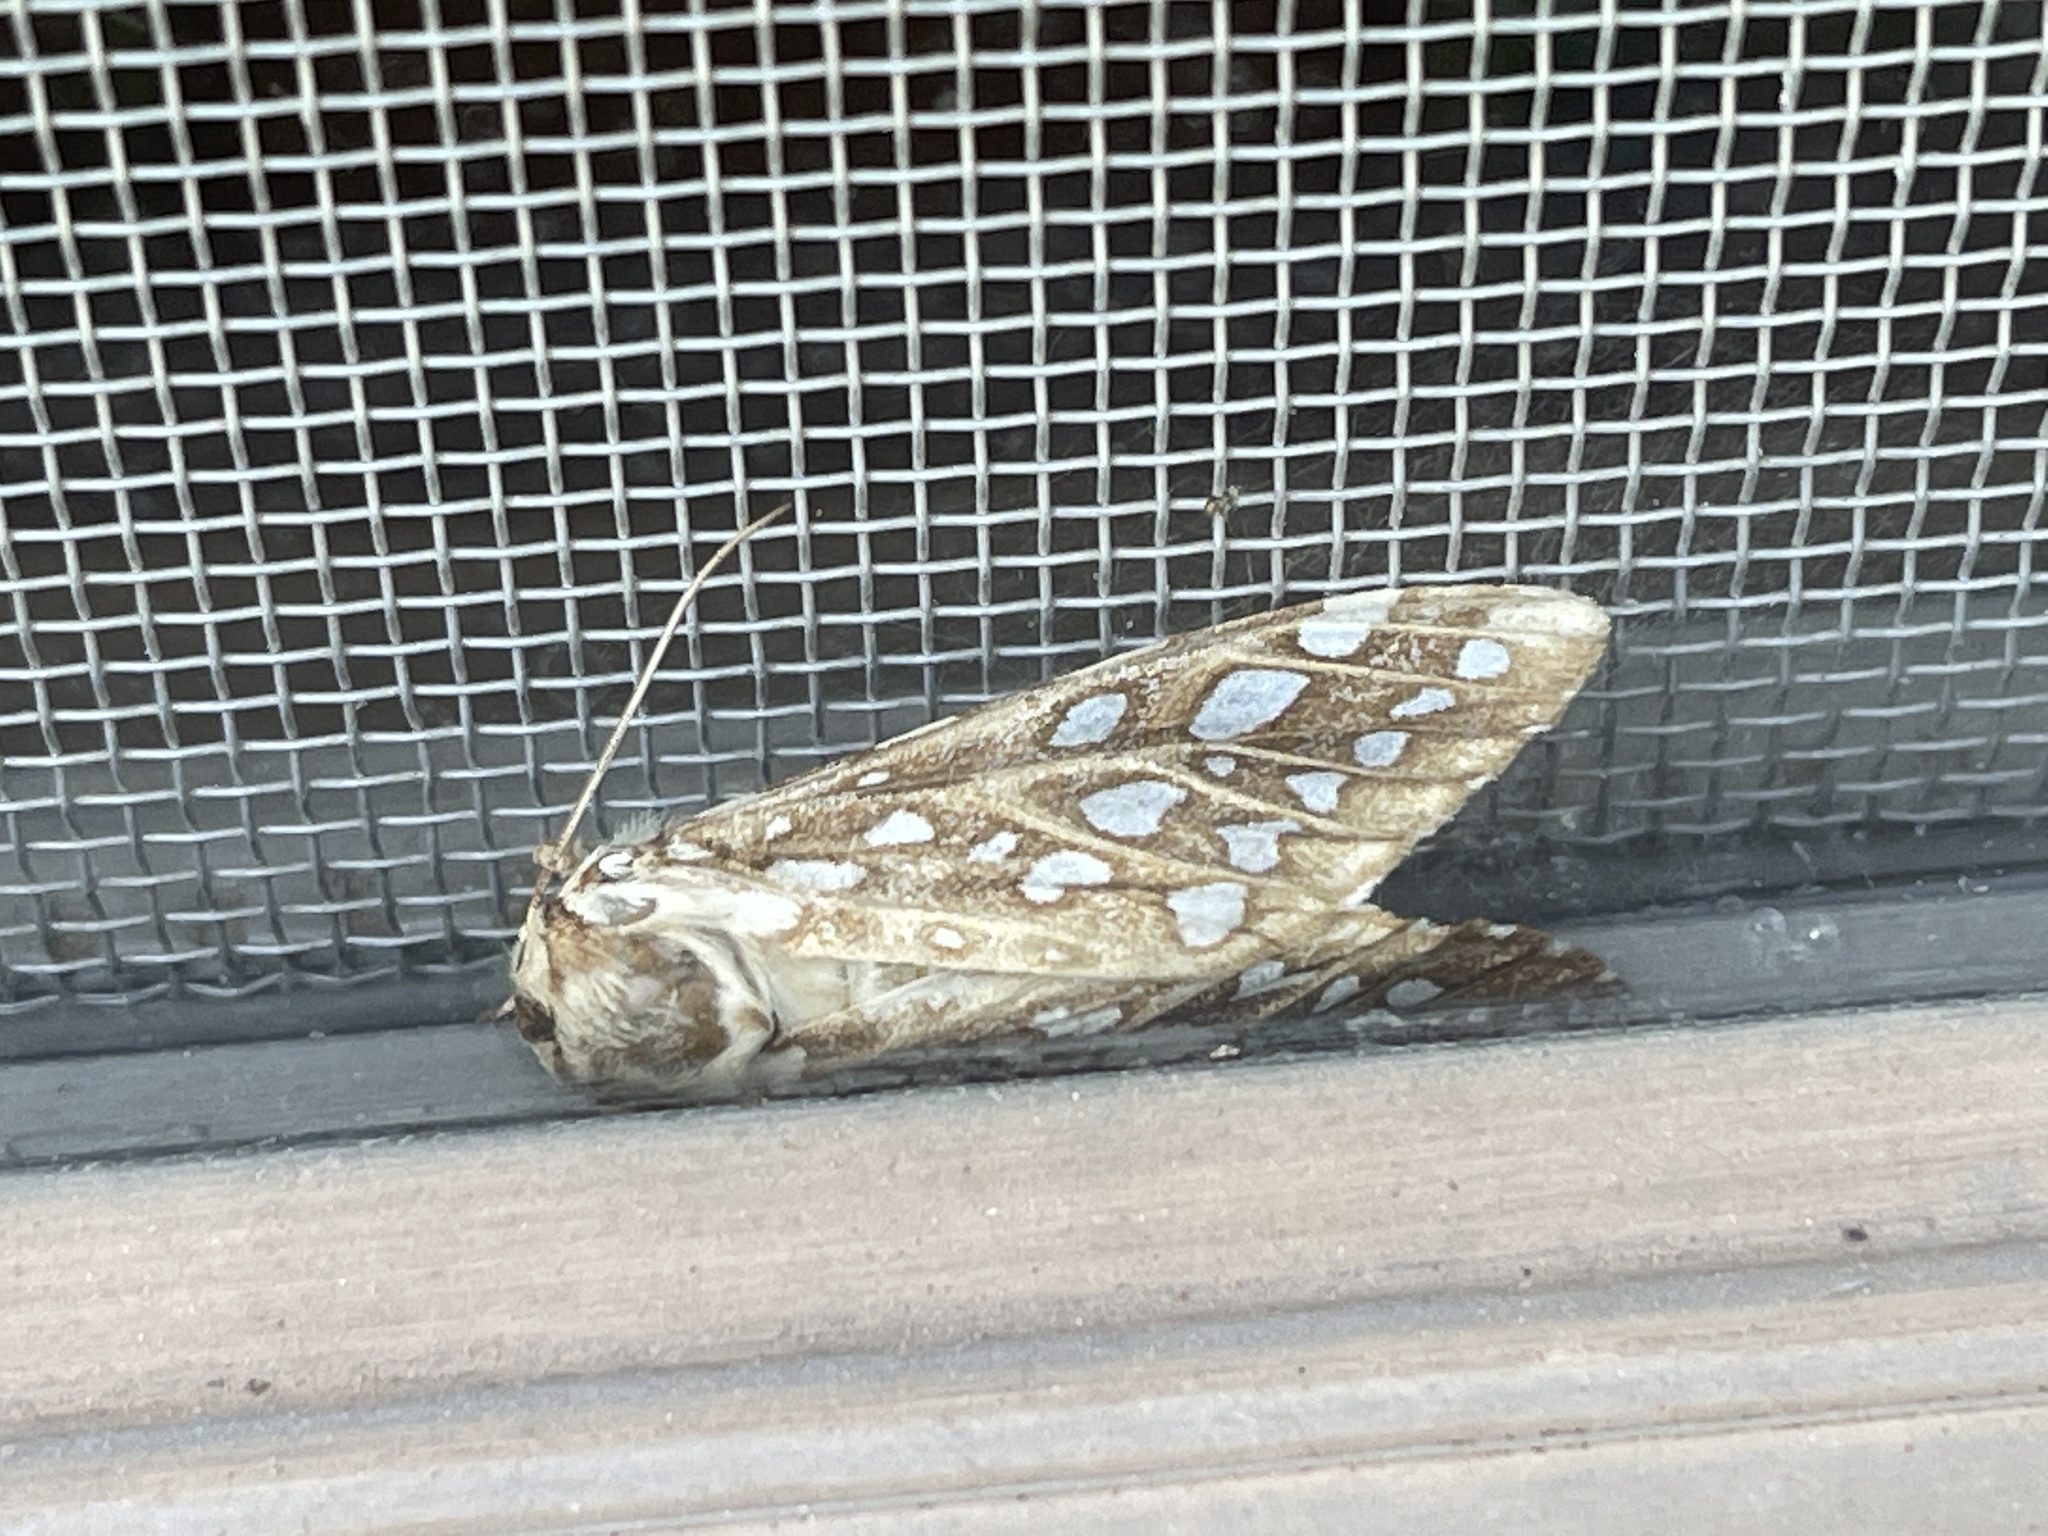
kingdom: Animalia
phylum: Arthropoda
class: Insecta
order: Lepidoptera
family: Erebidae
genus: Lophocampa
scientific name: Lophocampa argentata
